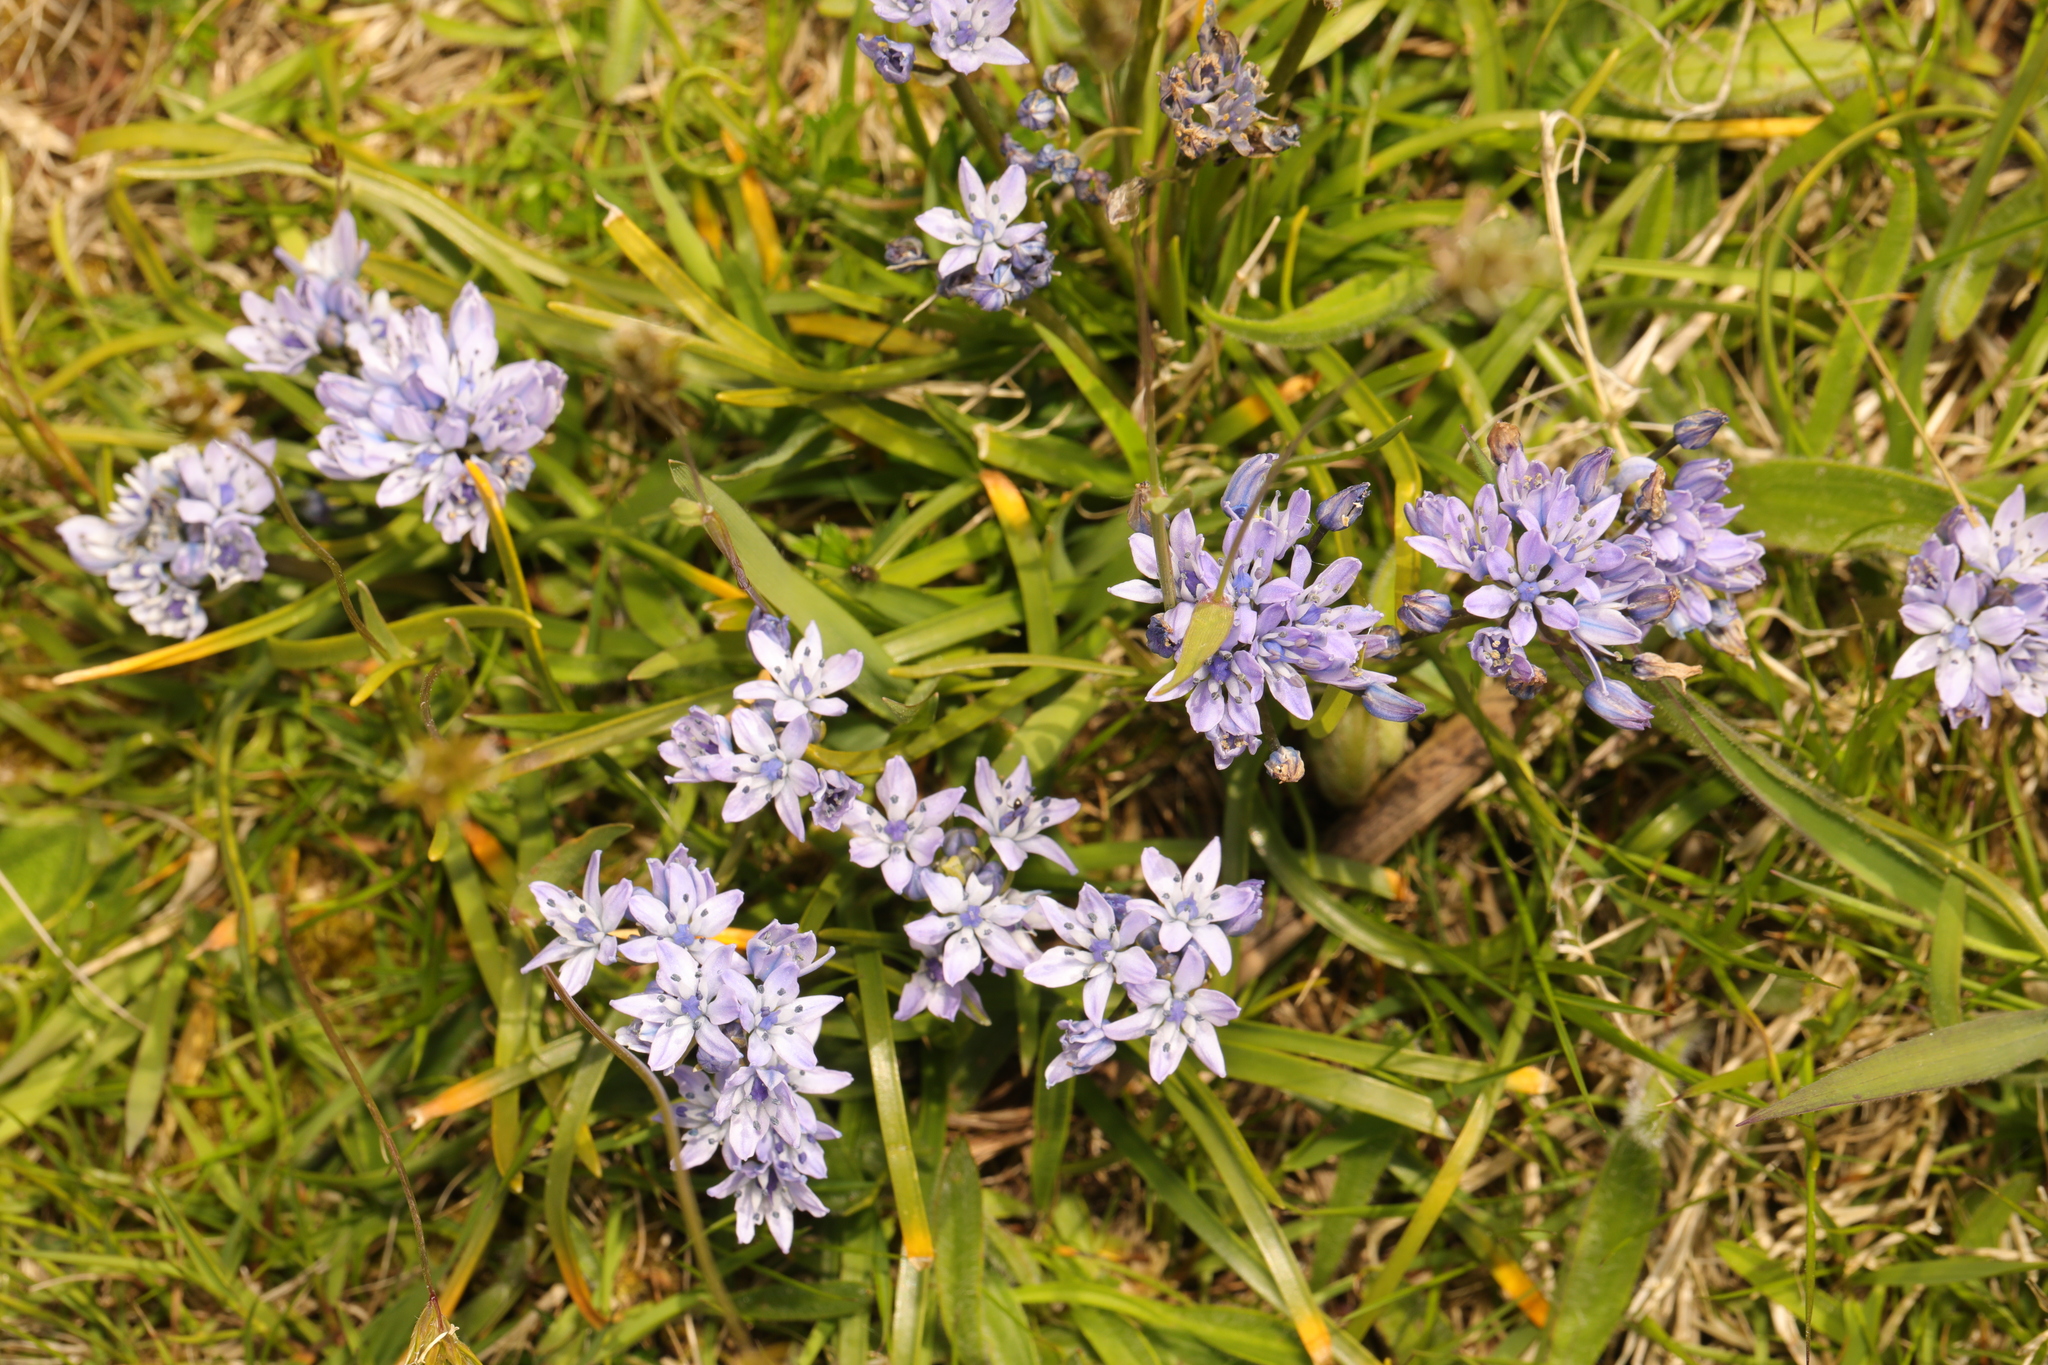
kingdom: Plantae
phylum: Tracheophyta
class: Liliopsida
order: Asparagales
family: Asparagaceae
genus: Scilla
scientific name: Scilla verna
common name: Spring squill
